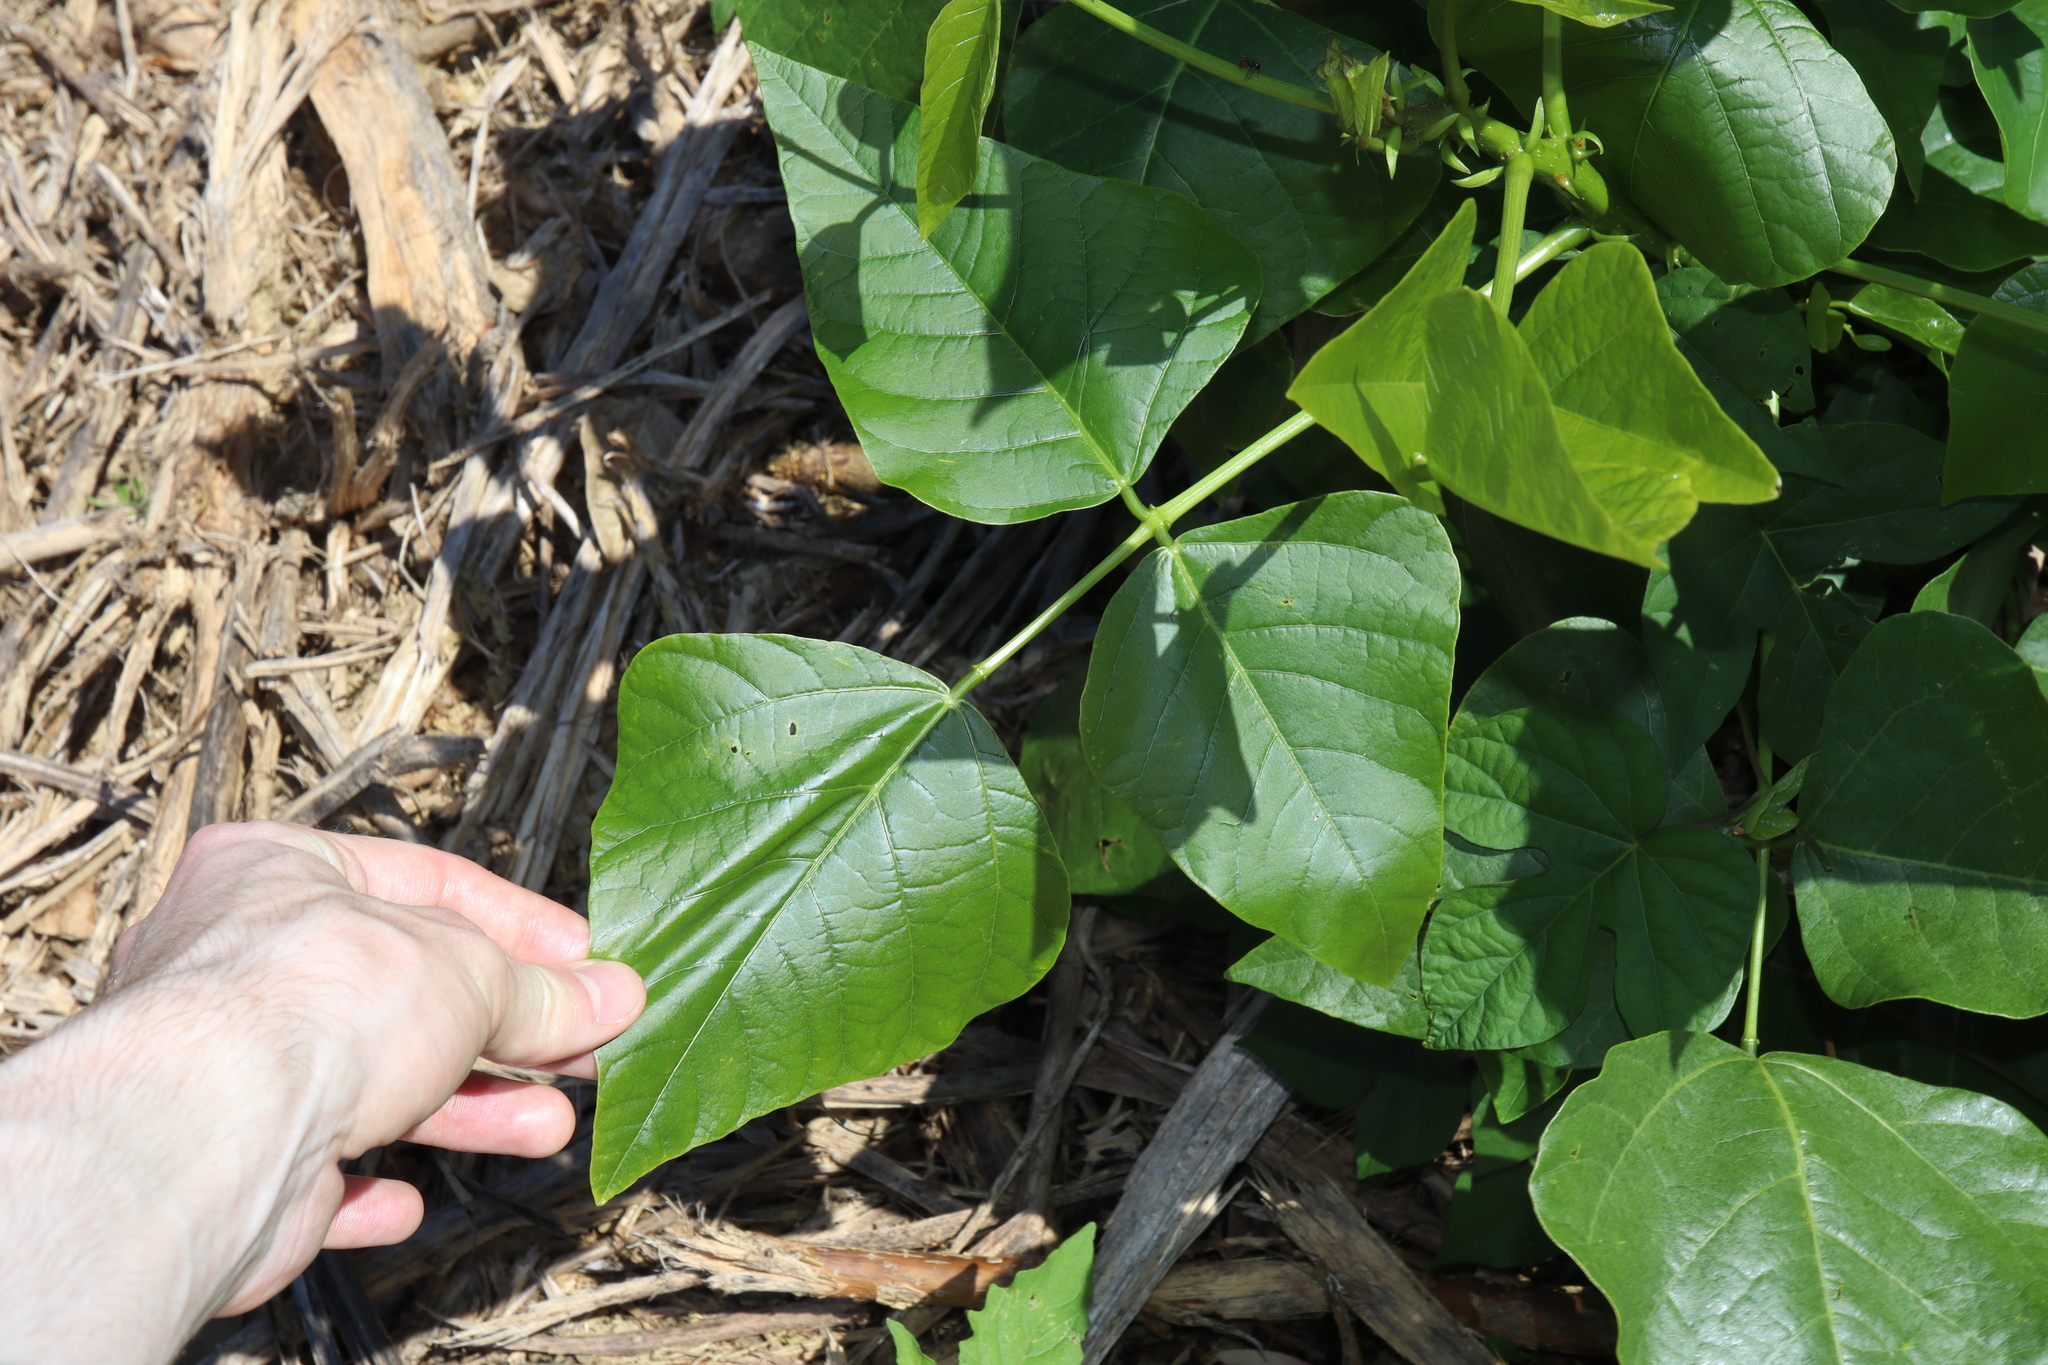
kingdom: Plantae
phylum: Tracheophyta
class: Magnoliopsida
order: Fabales
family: Fabaceae
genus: Erythrina
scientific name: Erythrina sykesii
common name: Coraltree
